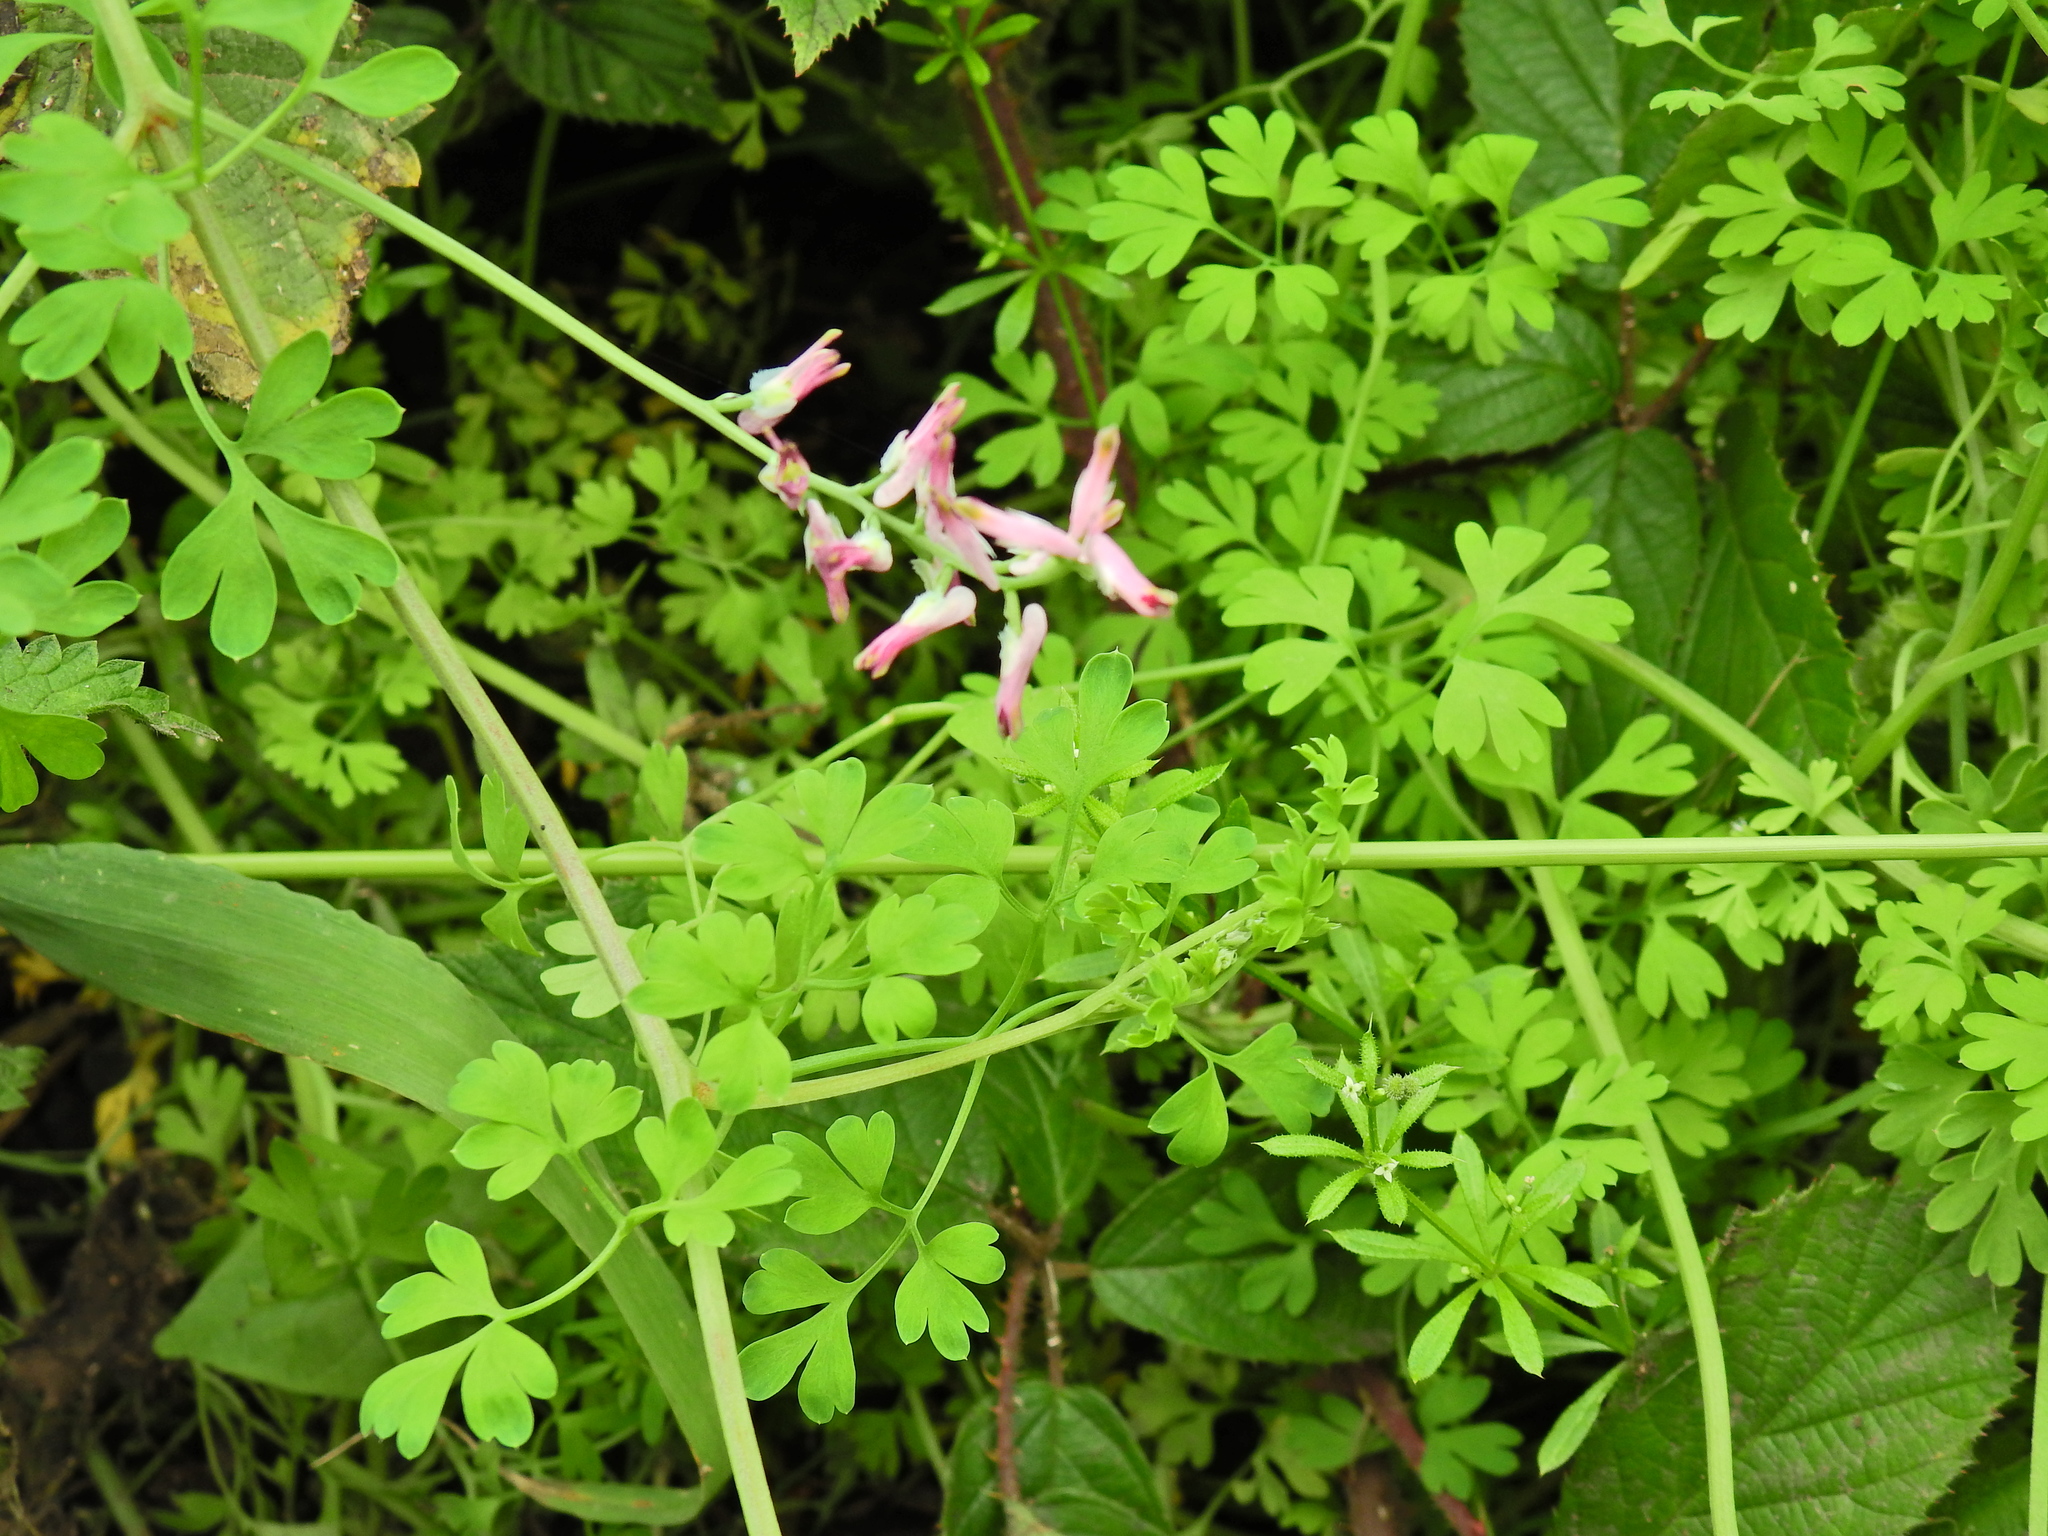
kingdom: Plantae
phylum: Tracheophyta
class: Magnoliopsida
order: Ranunculales
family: Papaveraceae
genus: Fumaria
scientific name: Fumaria muralis
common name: Common ramping-fumitory
